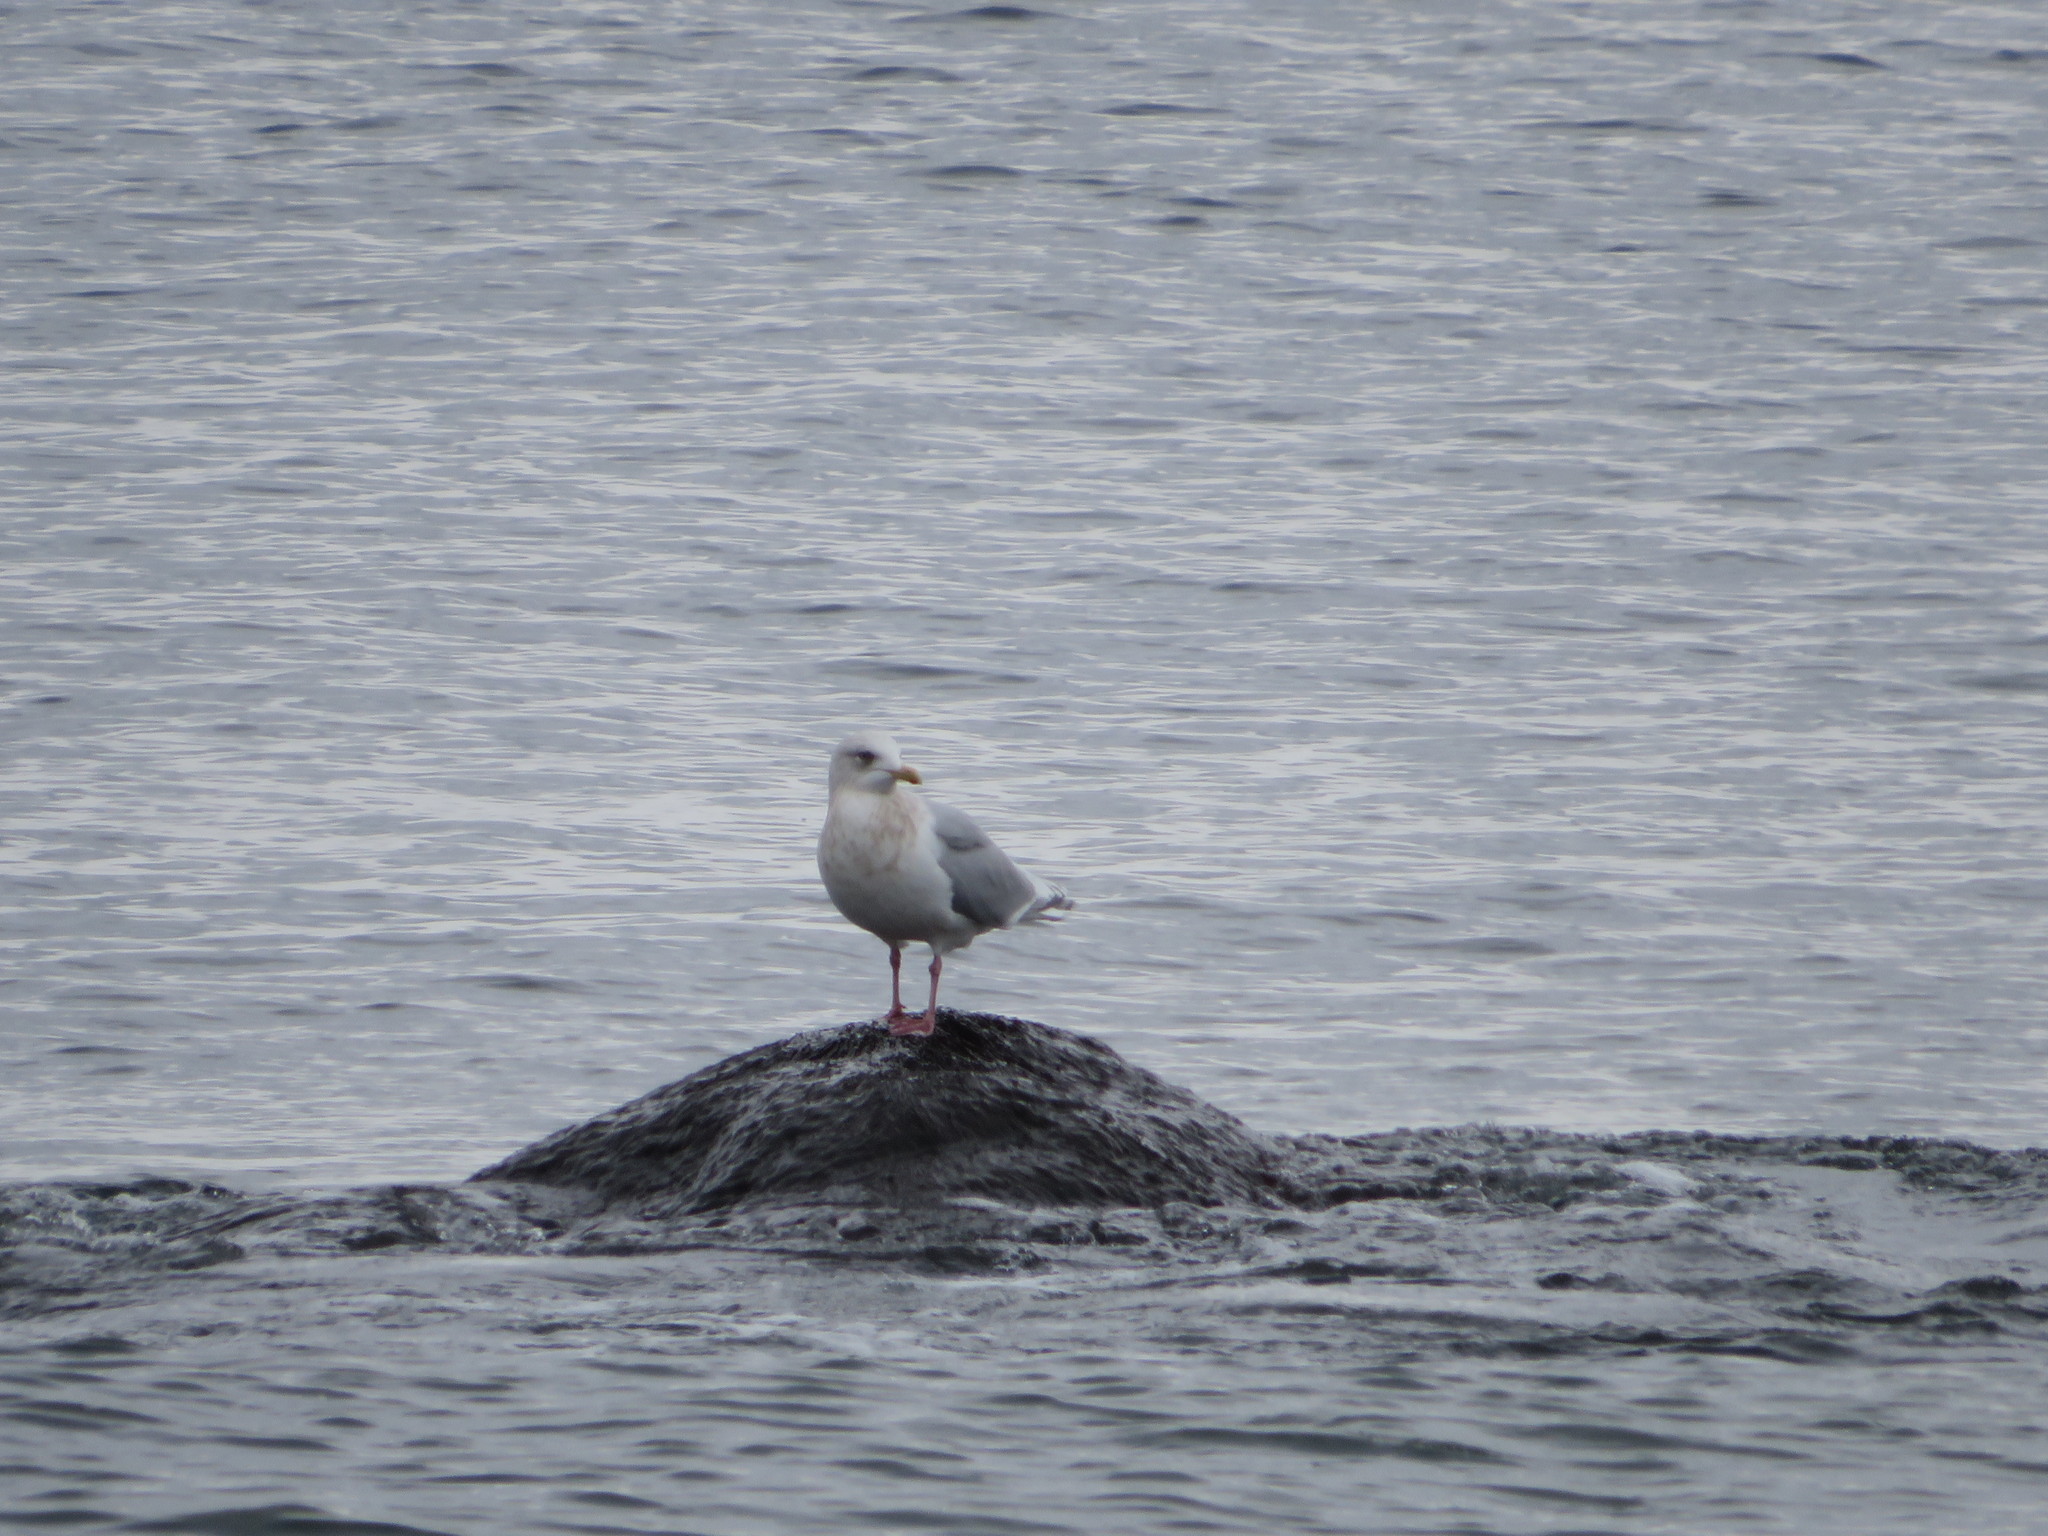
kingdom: Animalia
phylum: Chordata
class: Aves
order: Charadriiformes
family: Laridae
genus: Larus
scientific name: Larus glaucoides
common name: Iceland gull
